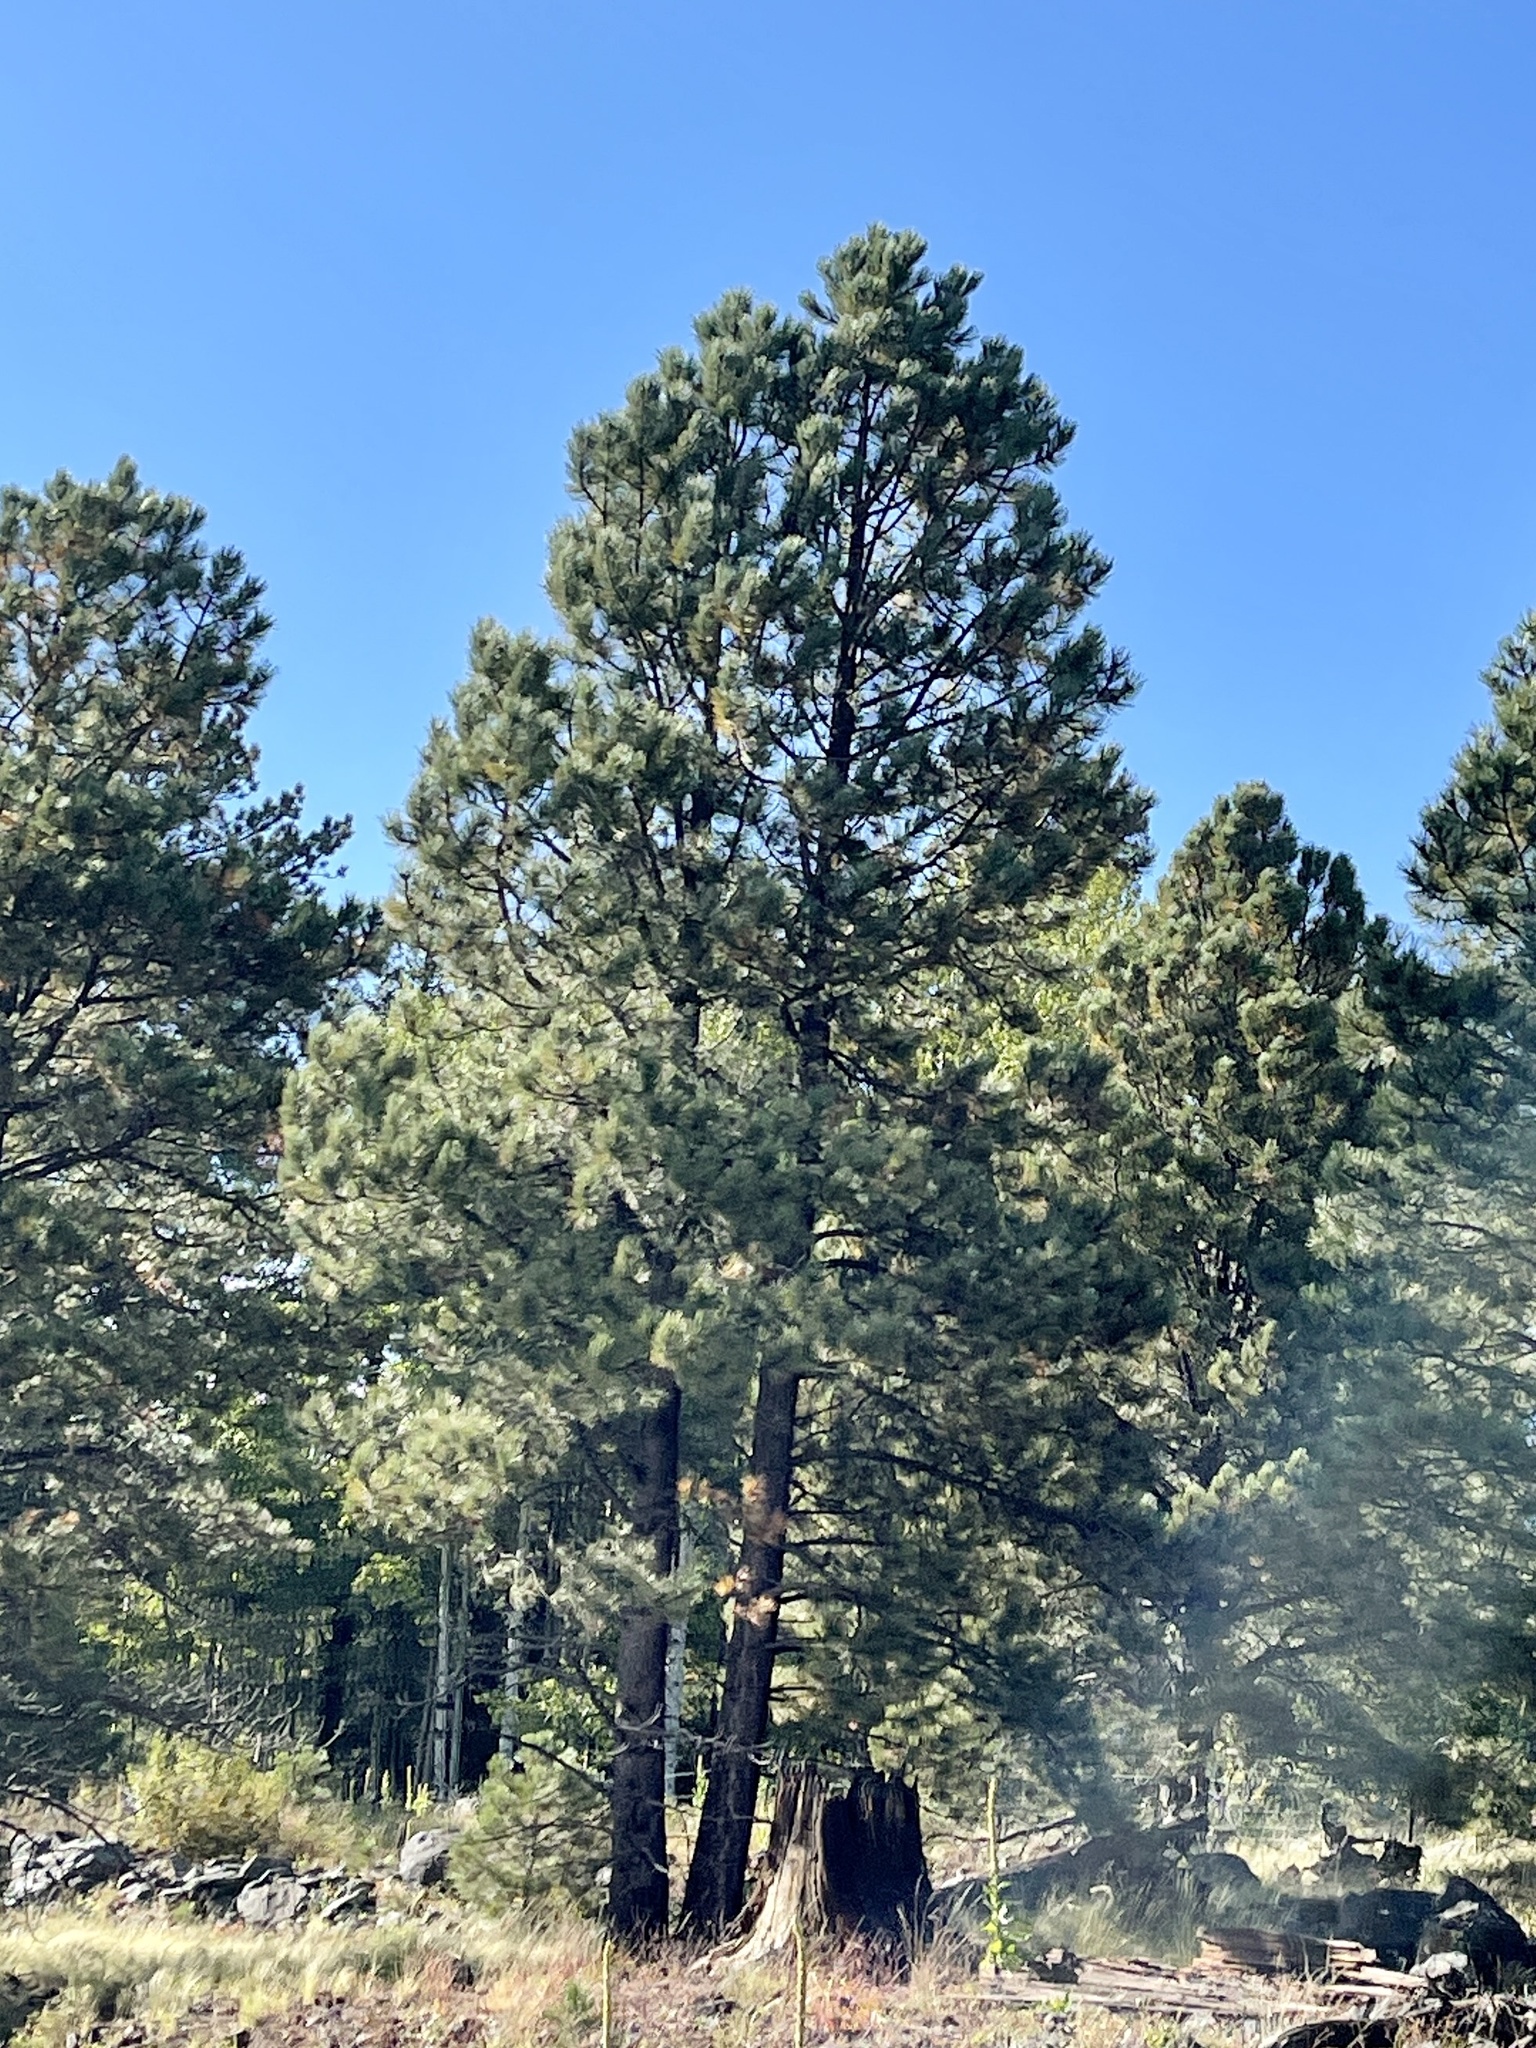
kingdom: Plantae
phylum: Tracheophyta
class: Pinopsida
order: Pinales
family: Pinaceae
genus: Pinus
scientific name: Pinus ponderosa
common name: Western yellow-pine
